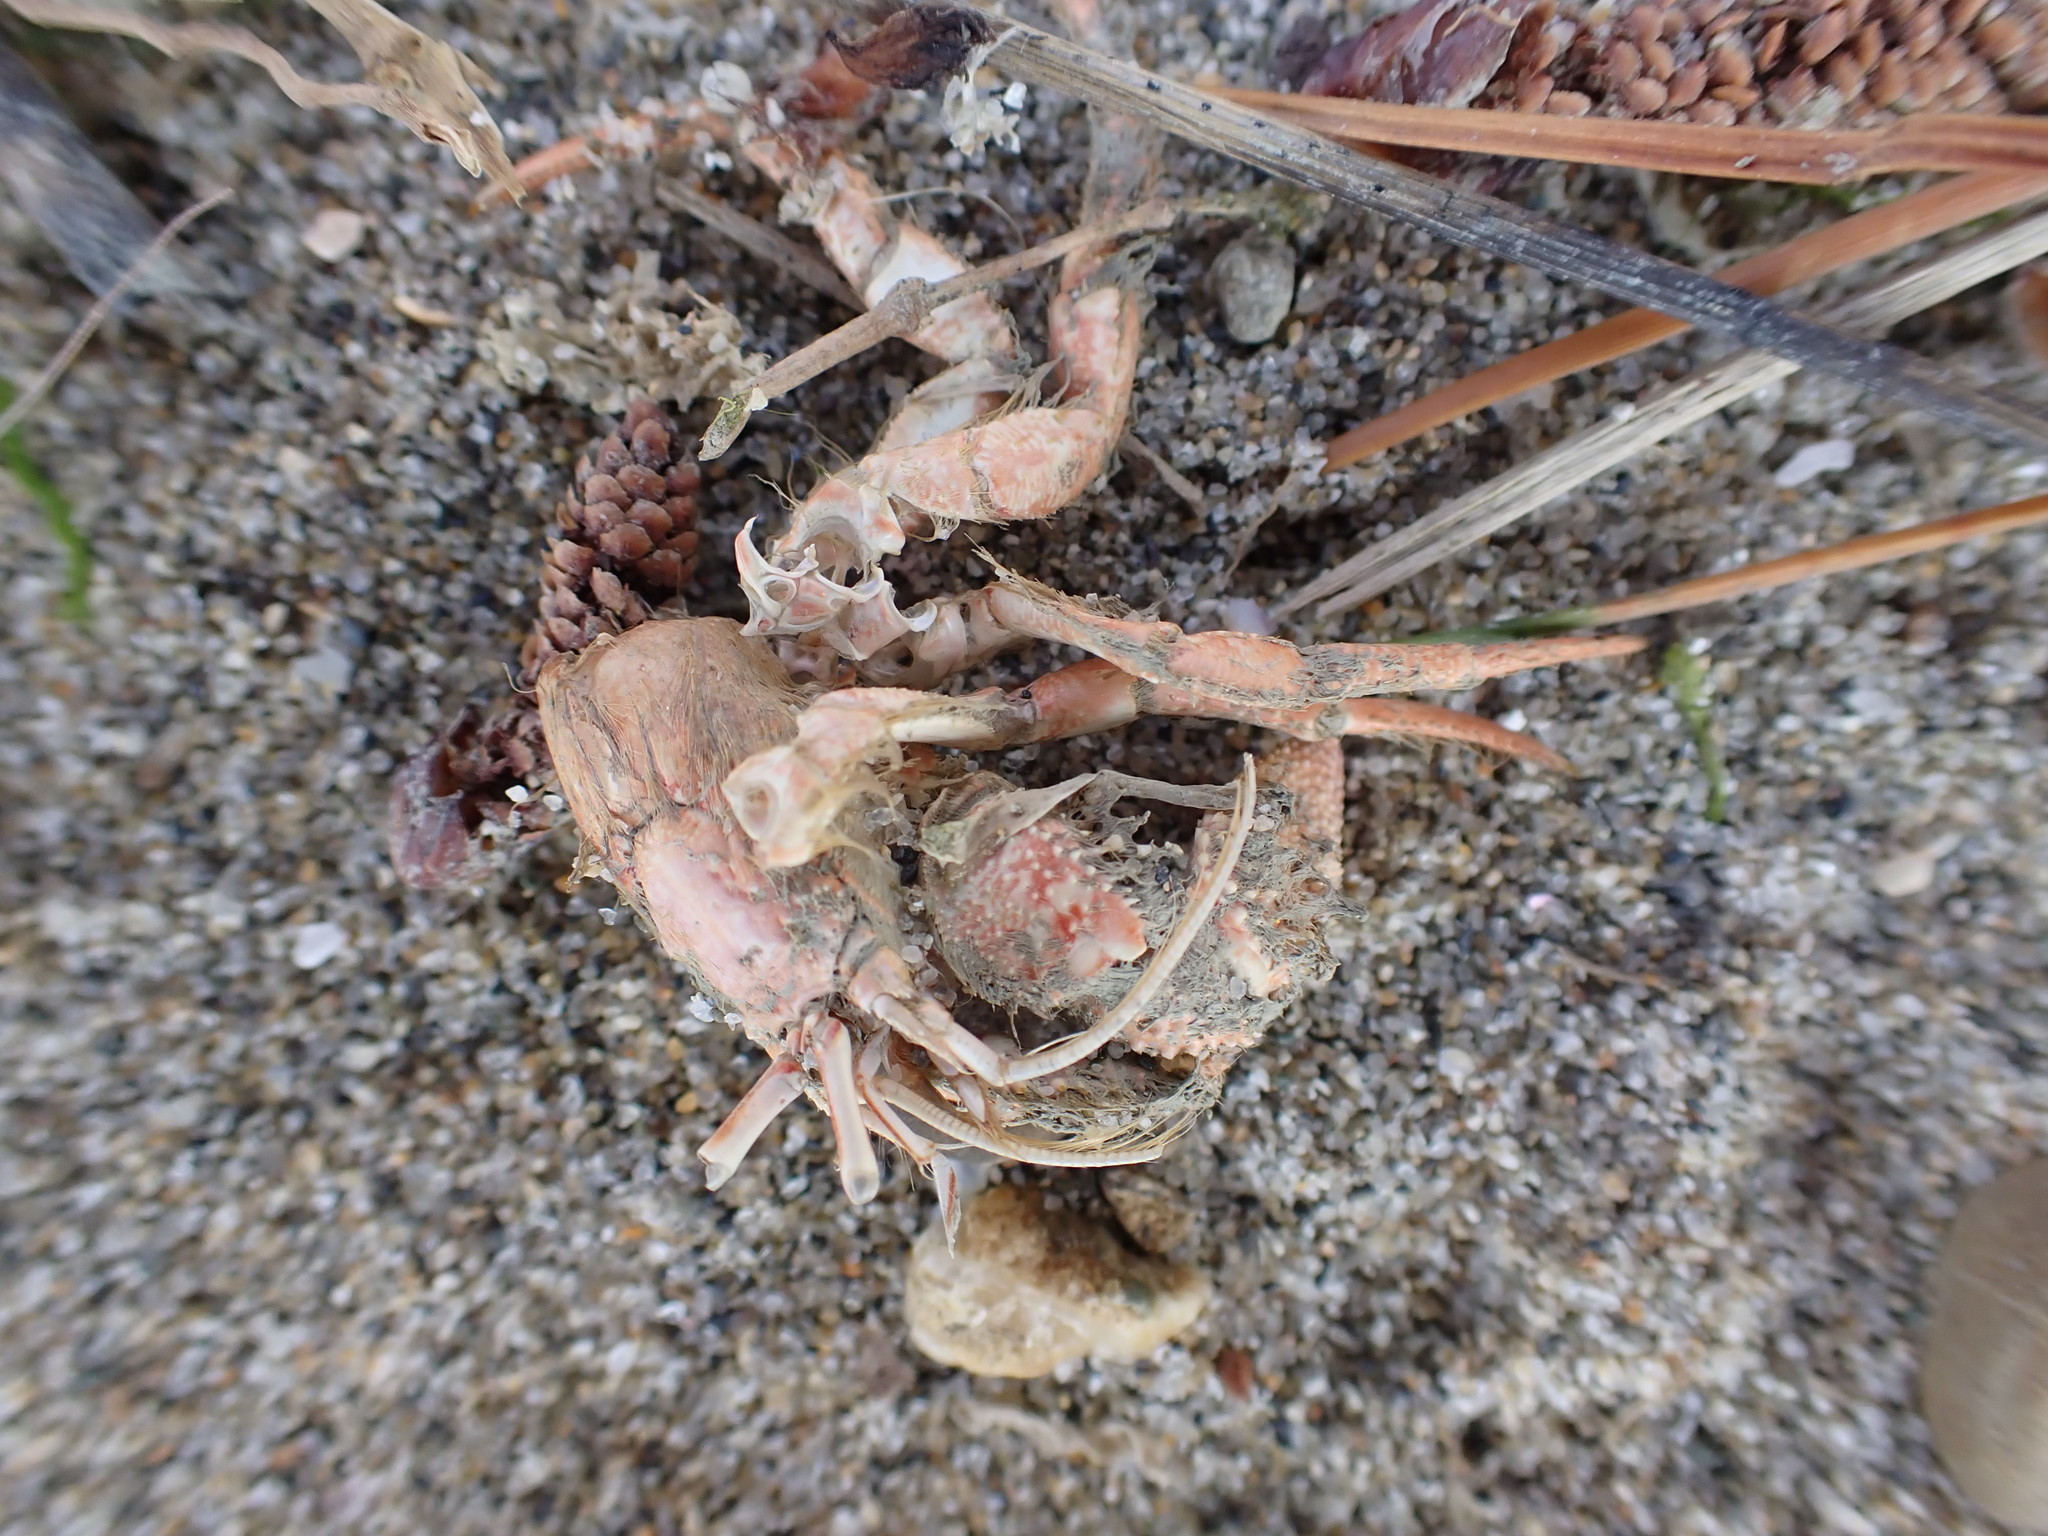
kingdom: Animalia
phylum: Arthropoda
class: Malacostraca
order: Decapoda
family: Diogenidae
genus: Areopaguristes
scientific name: Areopaguristes setosus
